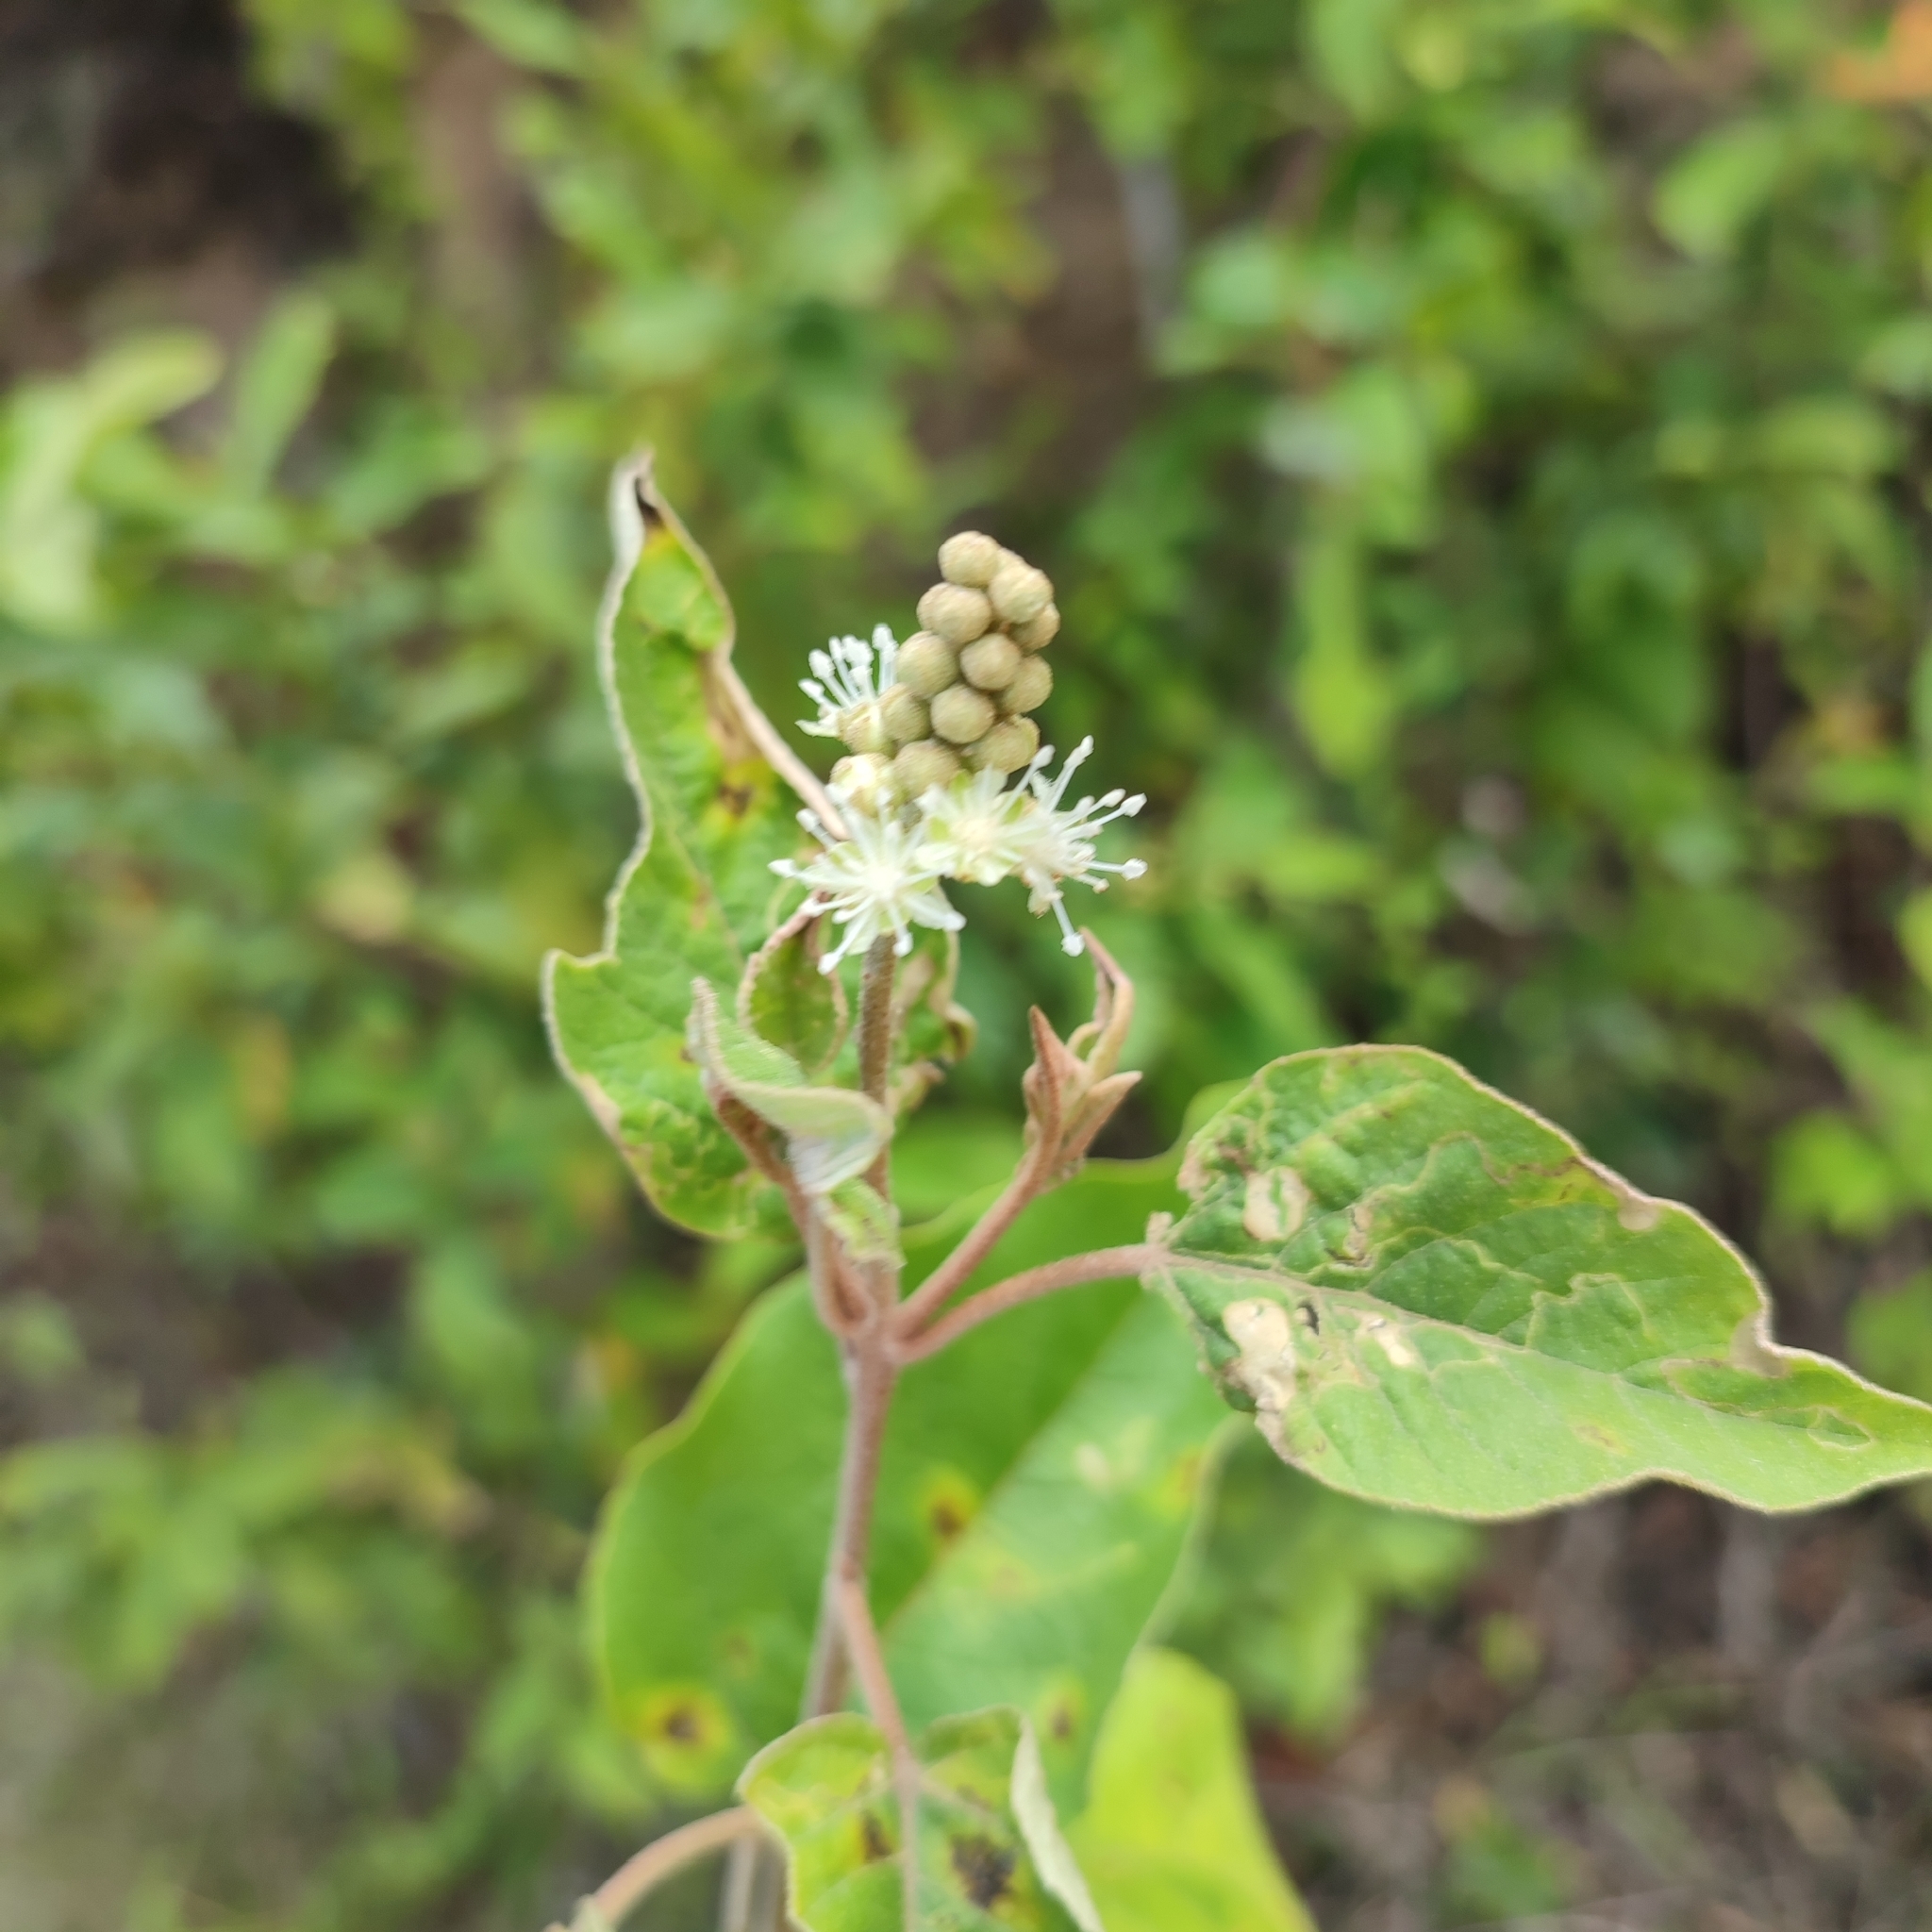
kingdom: Plantae
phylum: Tracheophyta
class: Magnoliopsida
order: Malpighiales
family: Euphorbiaceae
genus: Croton
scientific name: Croton astroites
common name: Wild marrow
